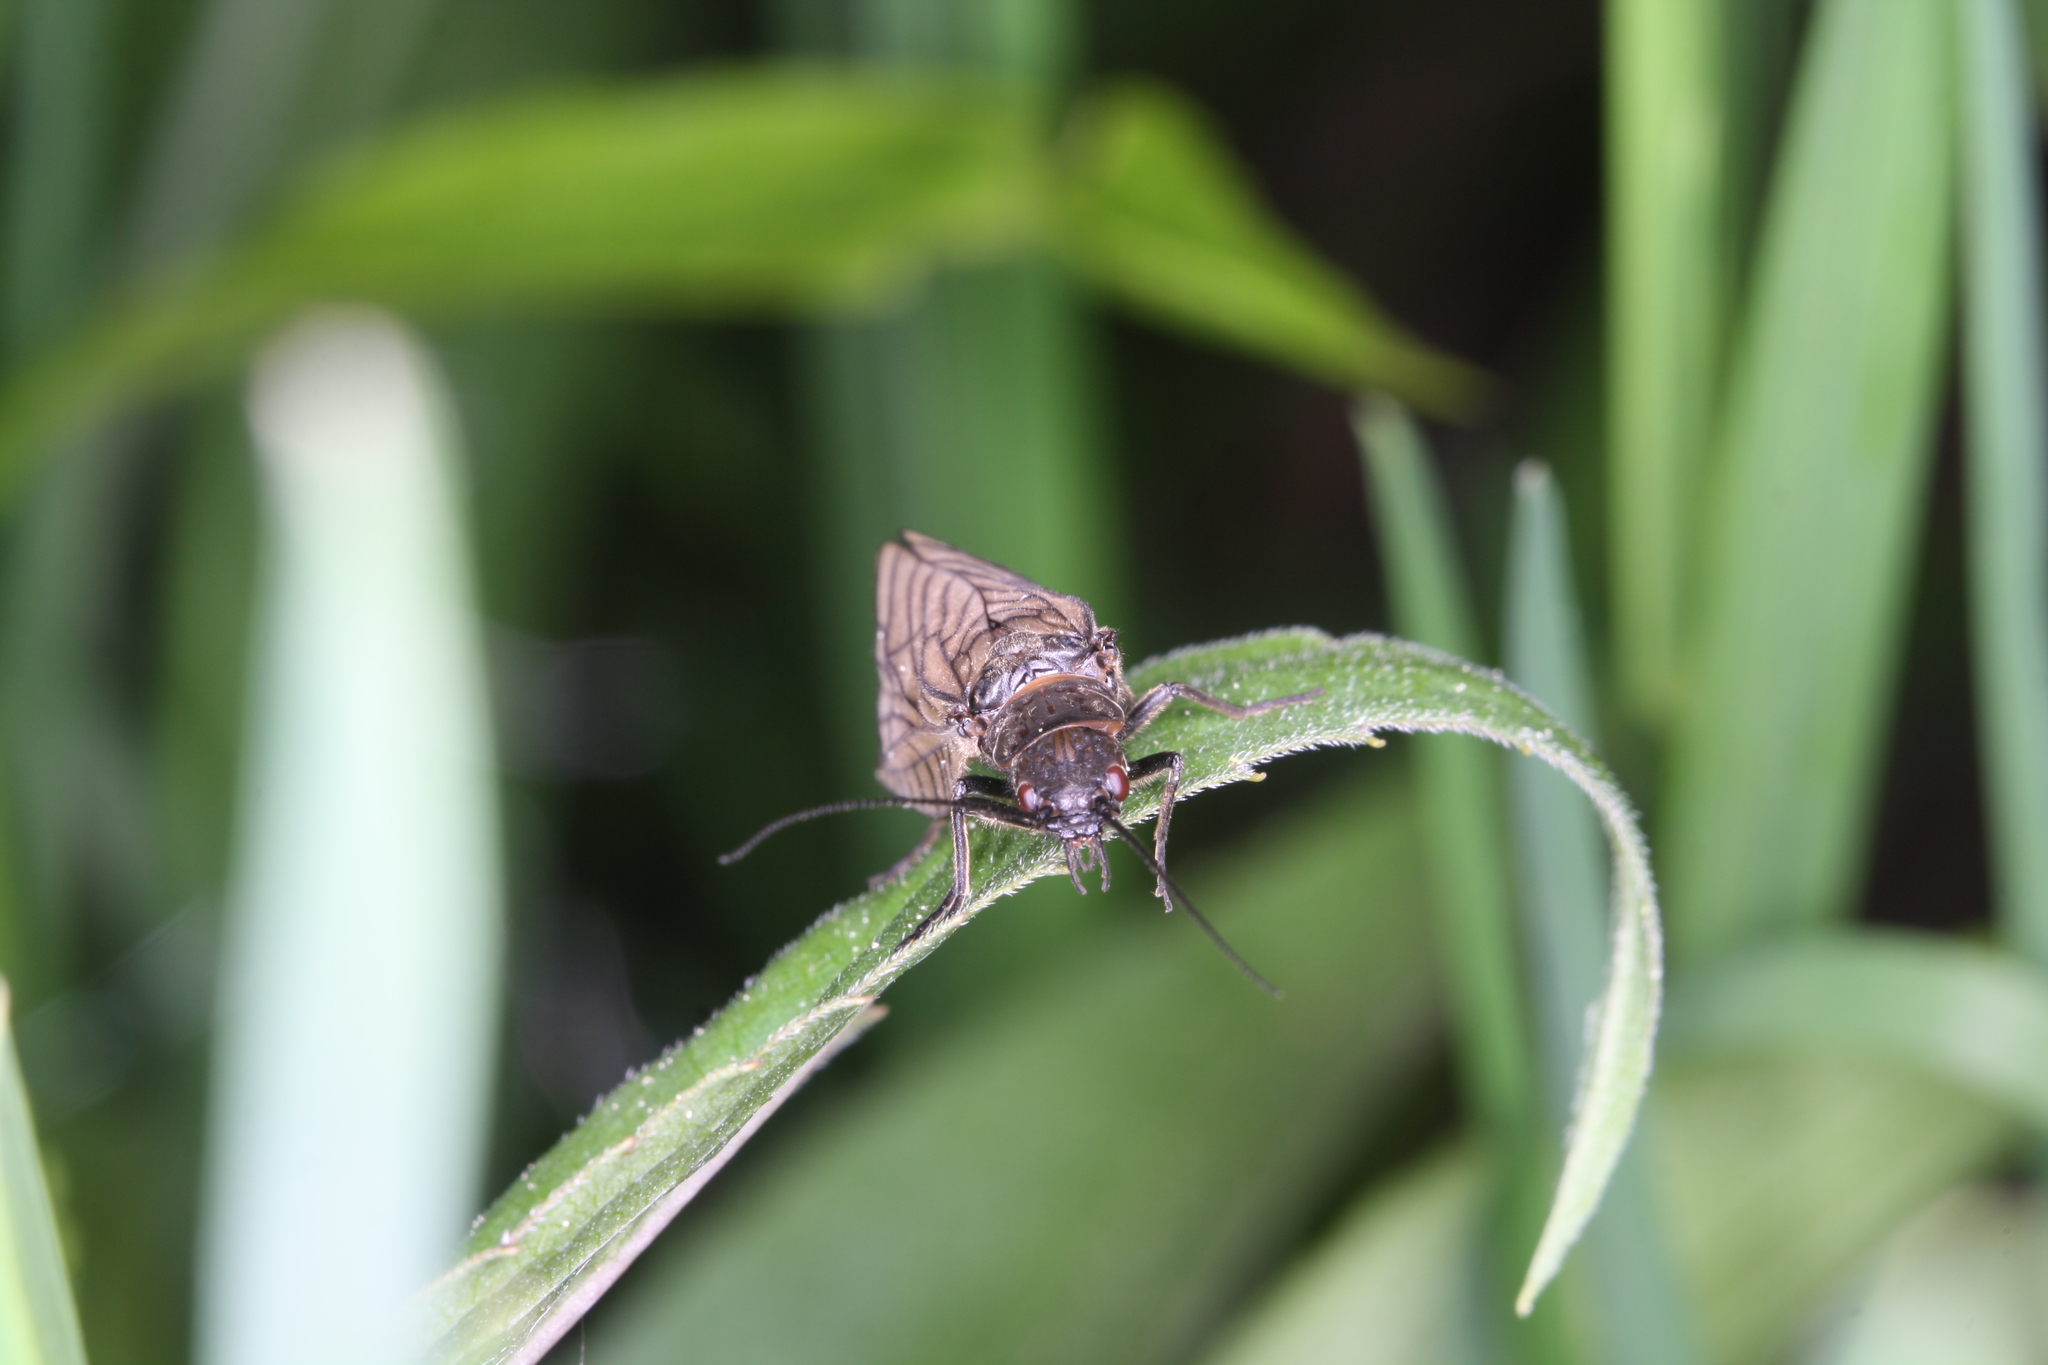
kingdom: Animalia
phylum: Arthropoda
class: Insecta
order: Megaloptera
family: Sialidae
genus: Sialis
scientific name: Sialis
